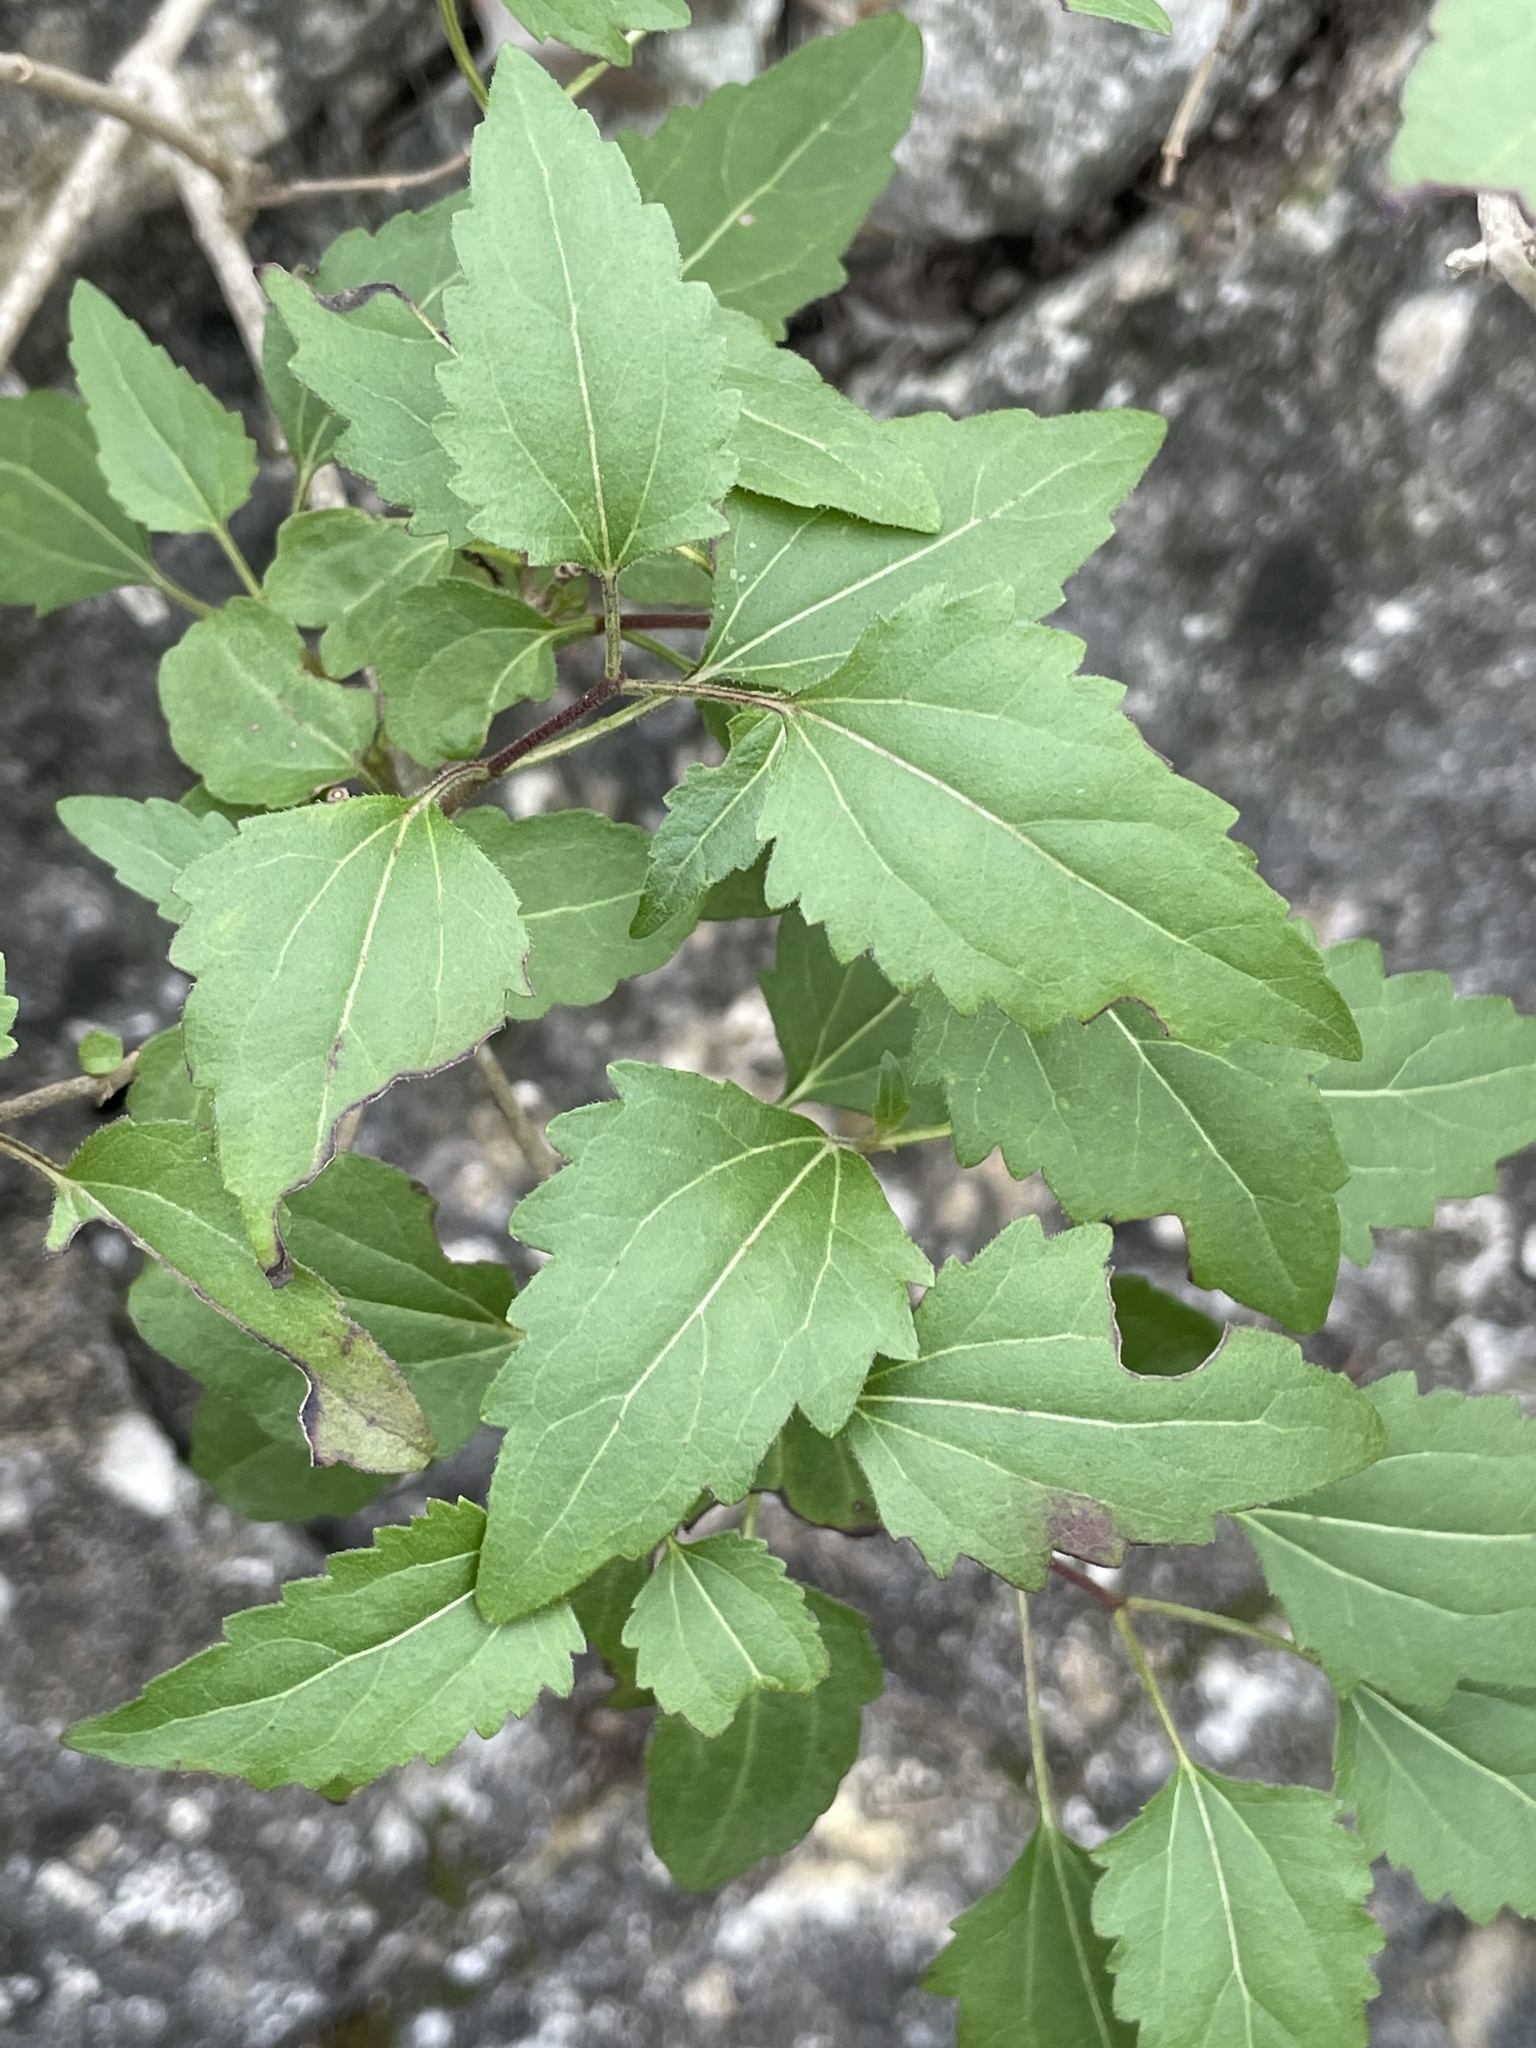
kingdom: Plantae
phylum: Tracheophyta
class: Magnoliopsida
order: Asterales
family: Asteraceae
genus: Ageratina
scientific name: Ageratina havanensis
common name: Havana snakeroot
